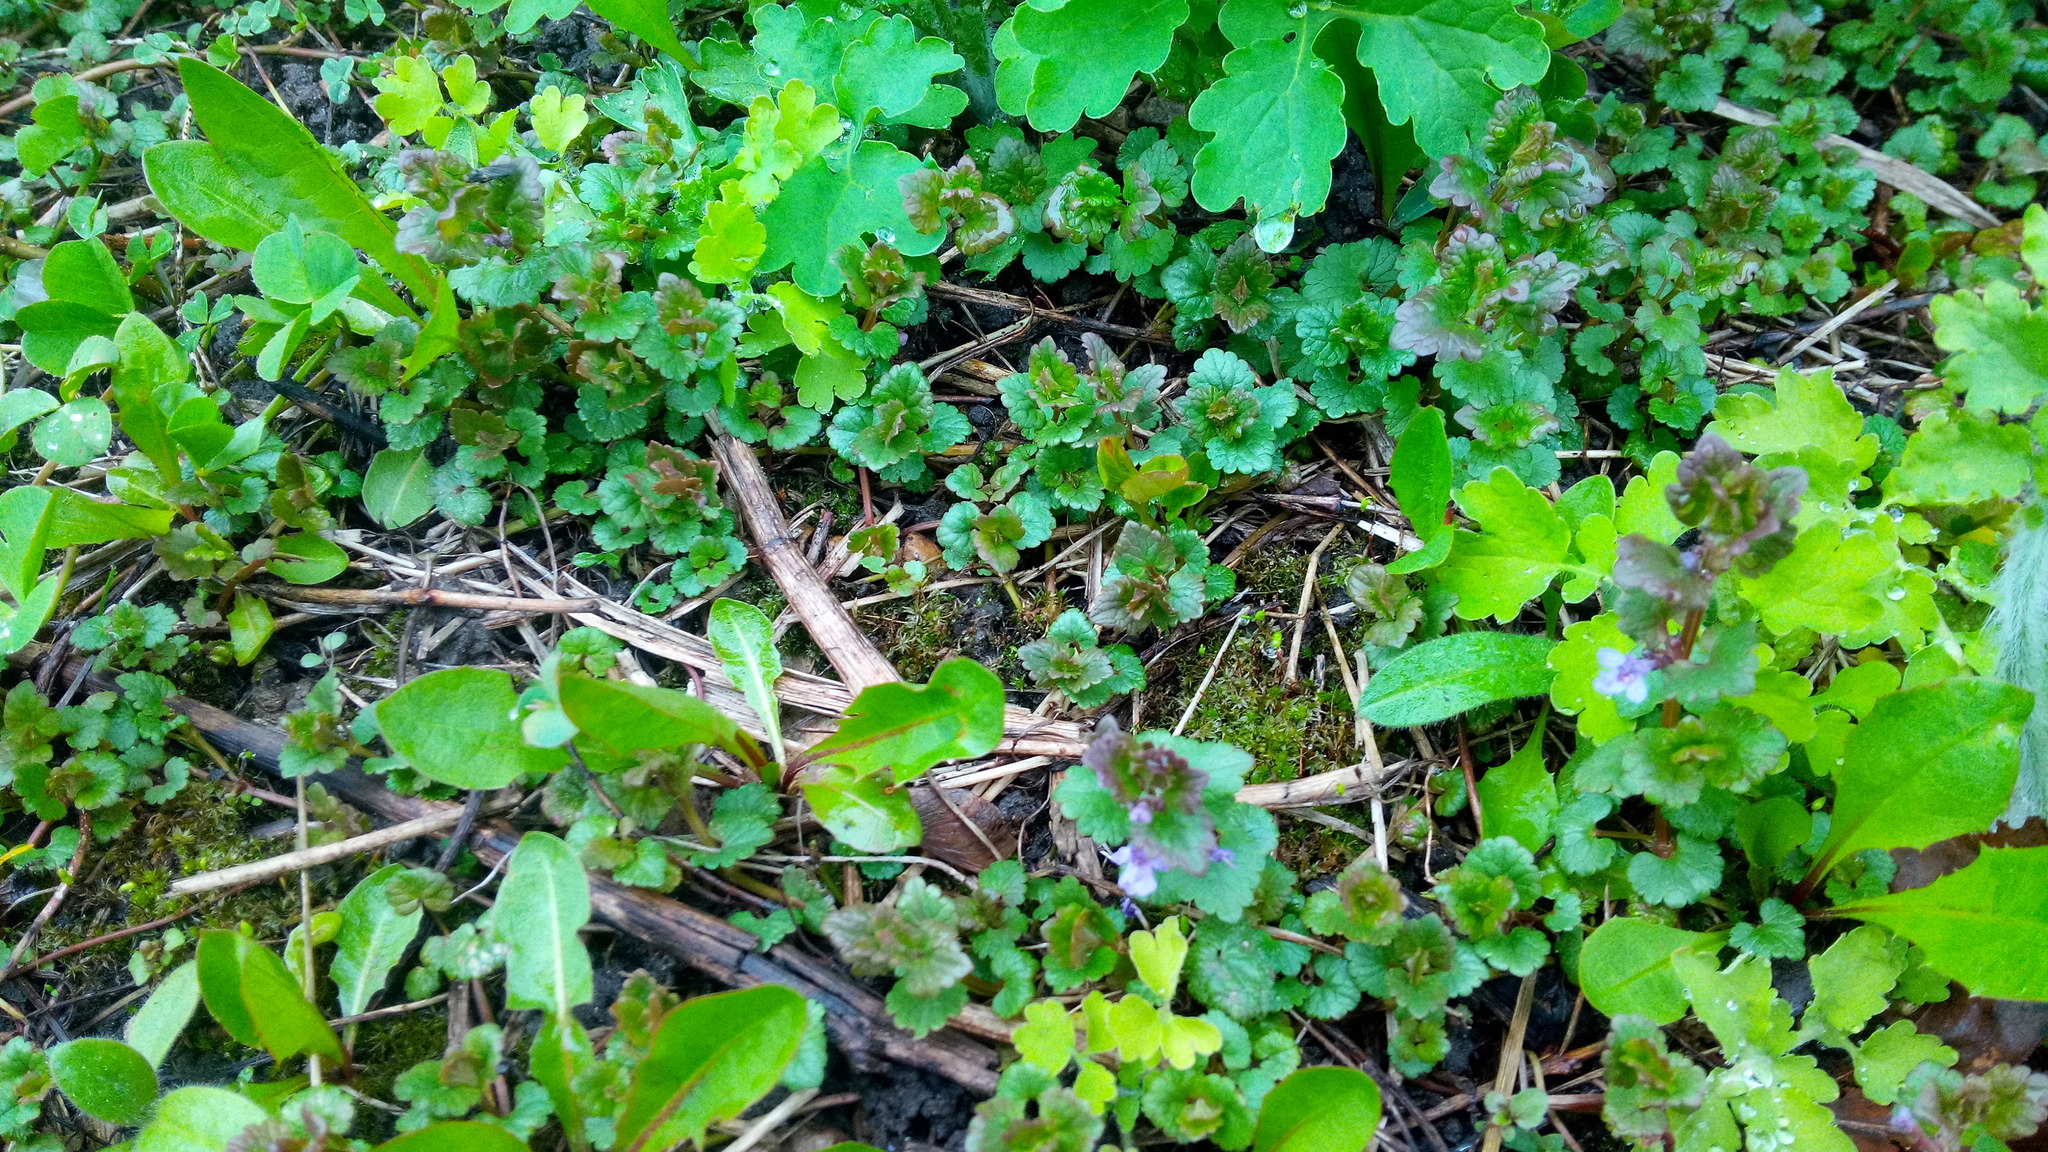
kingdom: Plantae
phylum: Tracheophyta
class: Magnoliopsida
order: Lamiales
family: Lamiaceae
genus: Glechoma
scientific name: Glechoma hederacea
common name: Ground ivy
